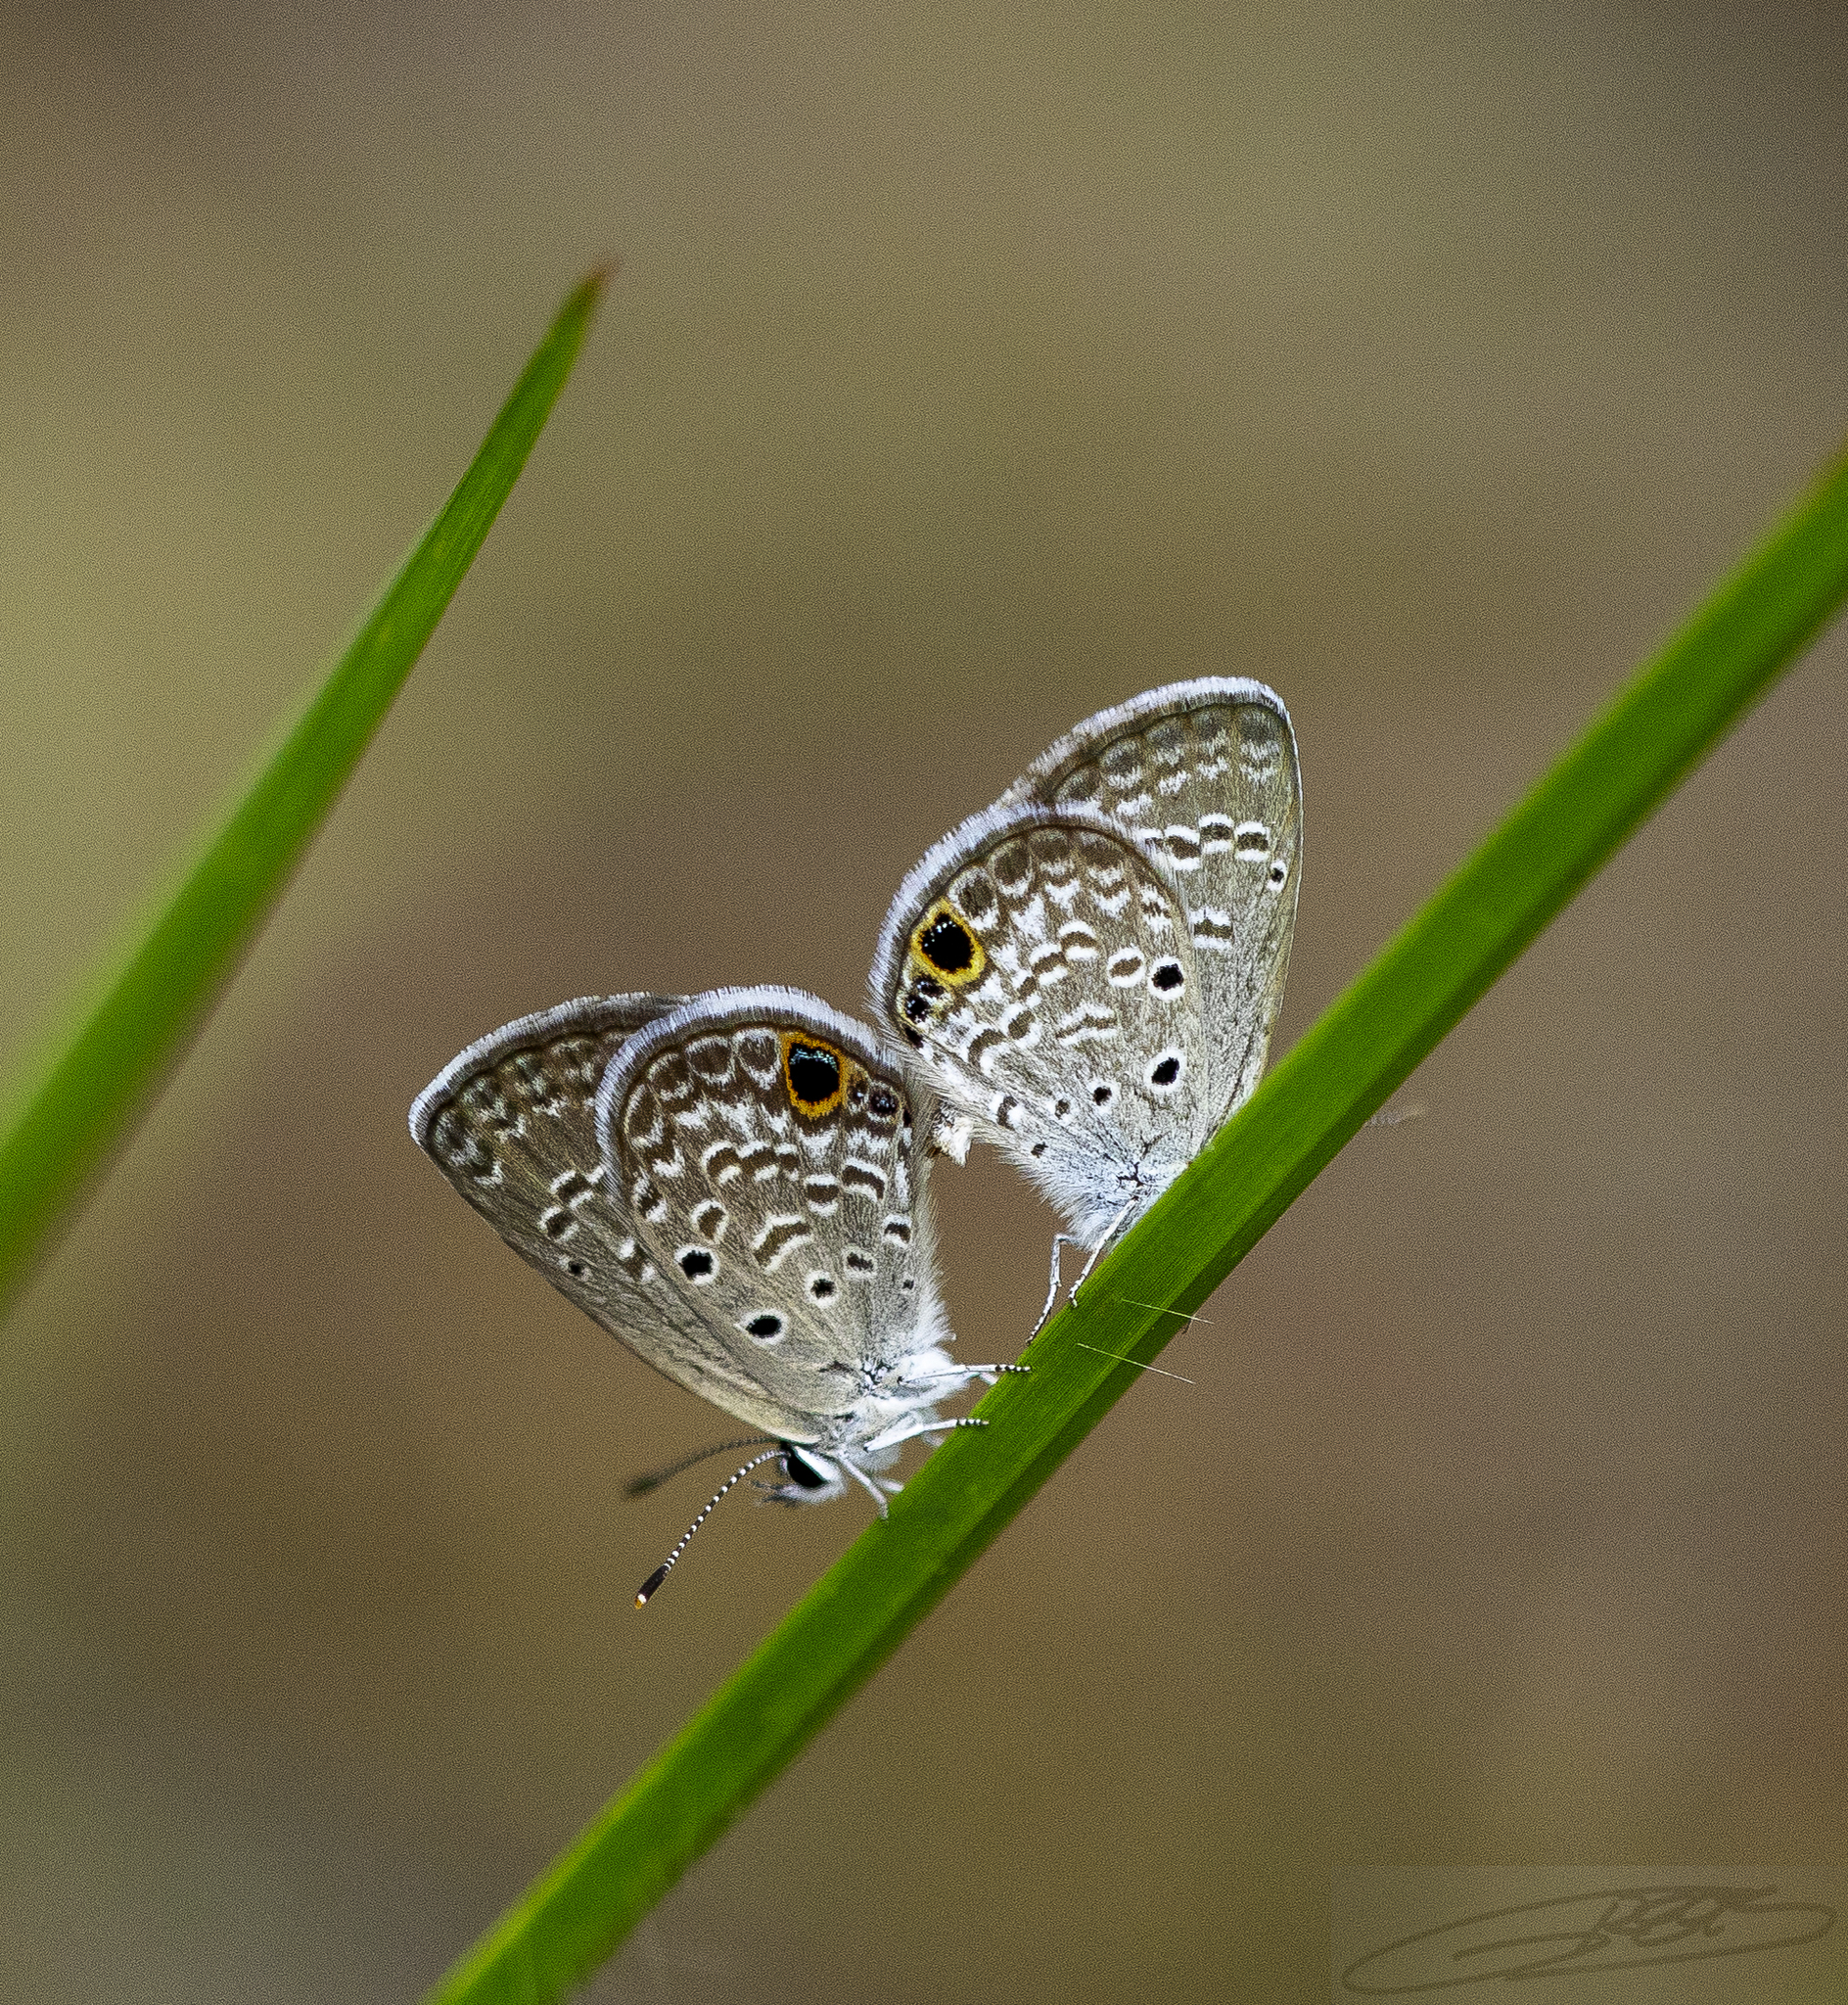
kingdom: Animalia
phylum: Arthropoda
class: Insecta
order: Lepidoptera
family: Lycaenidae
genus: Hemiargus
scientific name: Hemiargus ceraunus
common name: Ceraunus blue
